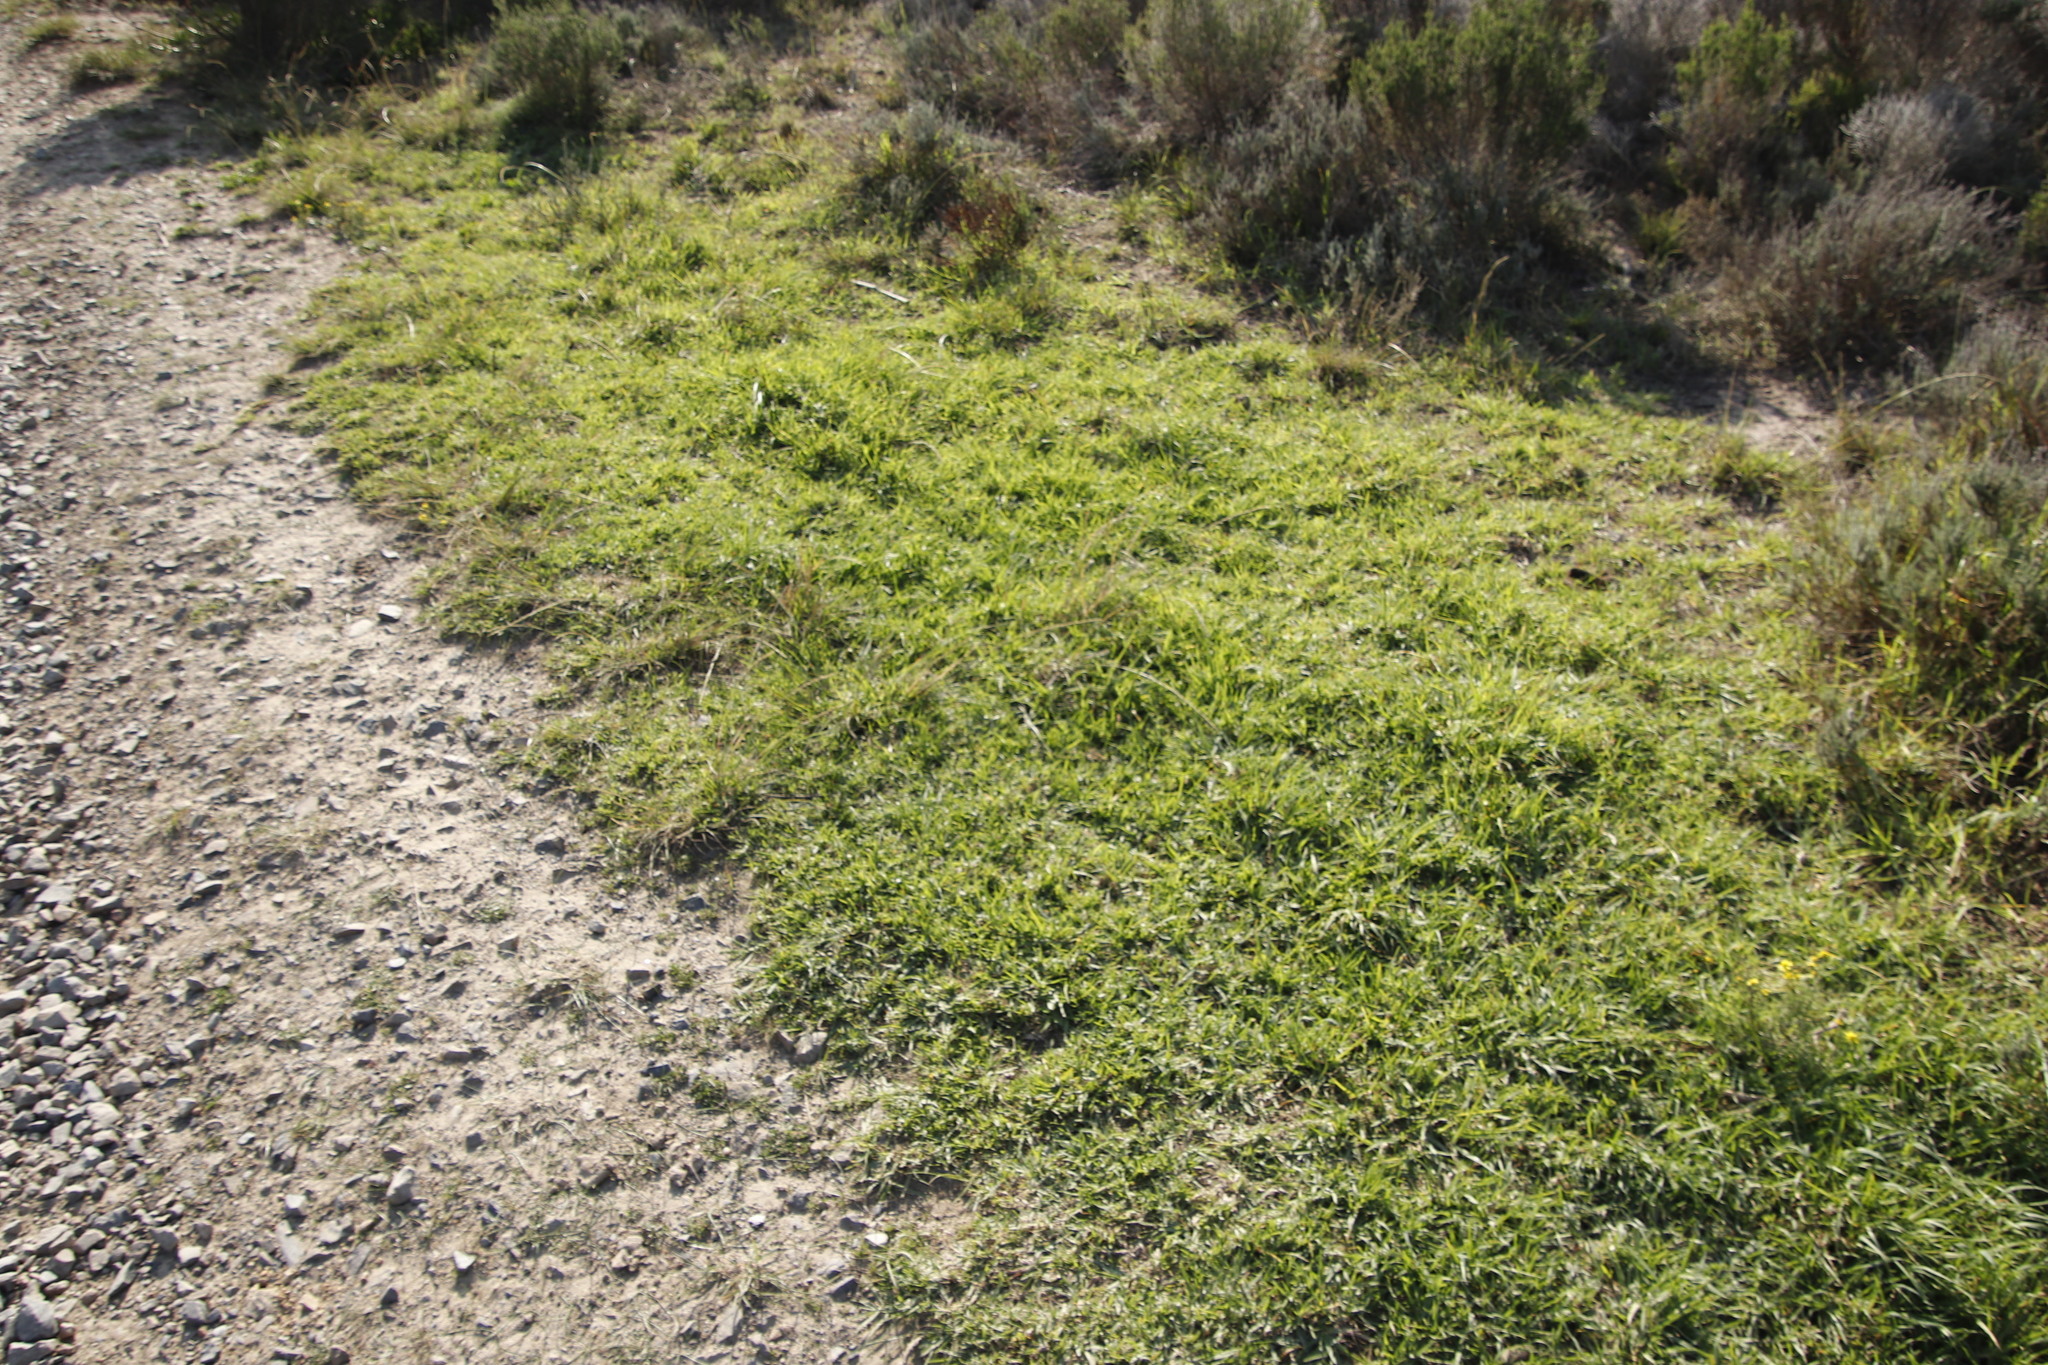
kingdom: Plantae
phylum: Tracheophyta
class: Liliopsida
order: Poales
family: Poaceae
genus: Cenchrus
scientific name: Cenchrus clandestinus
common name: Kikuyugrass
